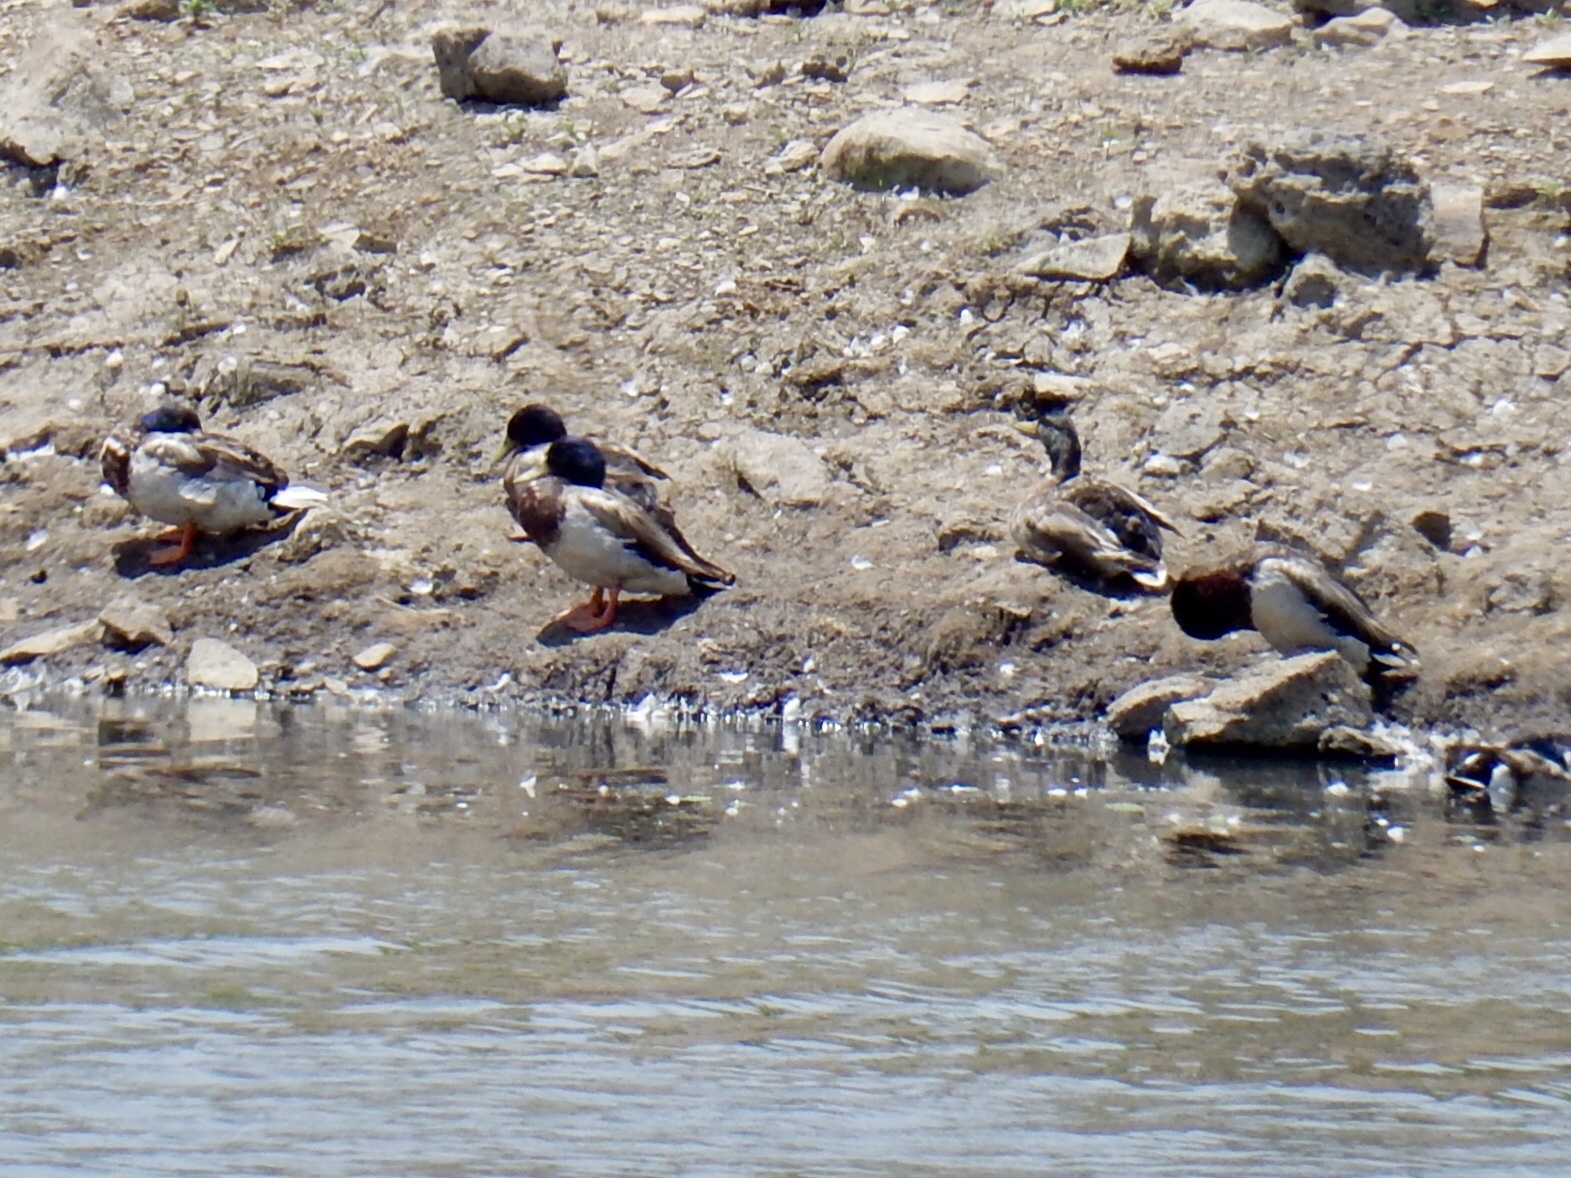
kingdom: Animalia
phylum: Chordata
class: Aves
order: Anseriformes
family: Anatidae
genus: Anas
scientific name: Anas platyrhynchos
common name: Mallard
